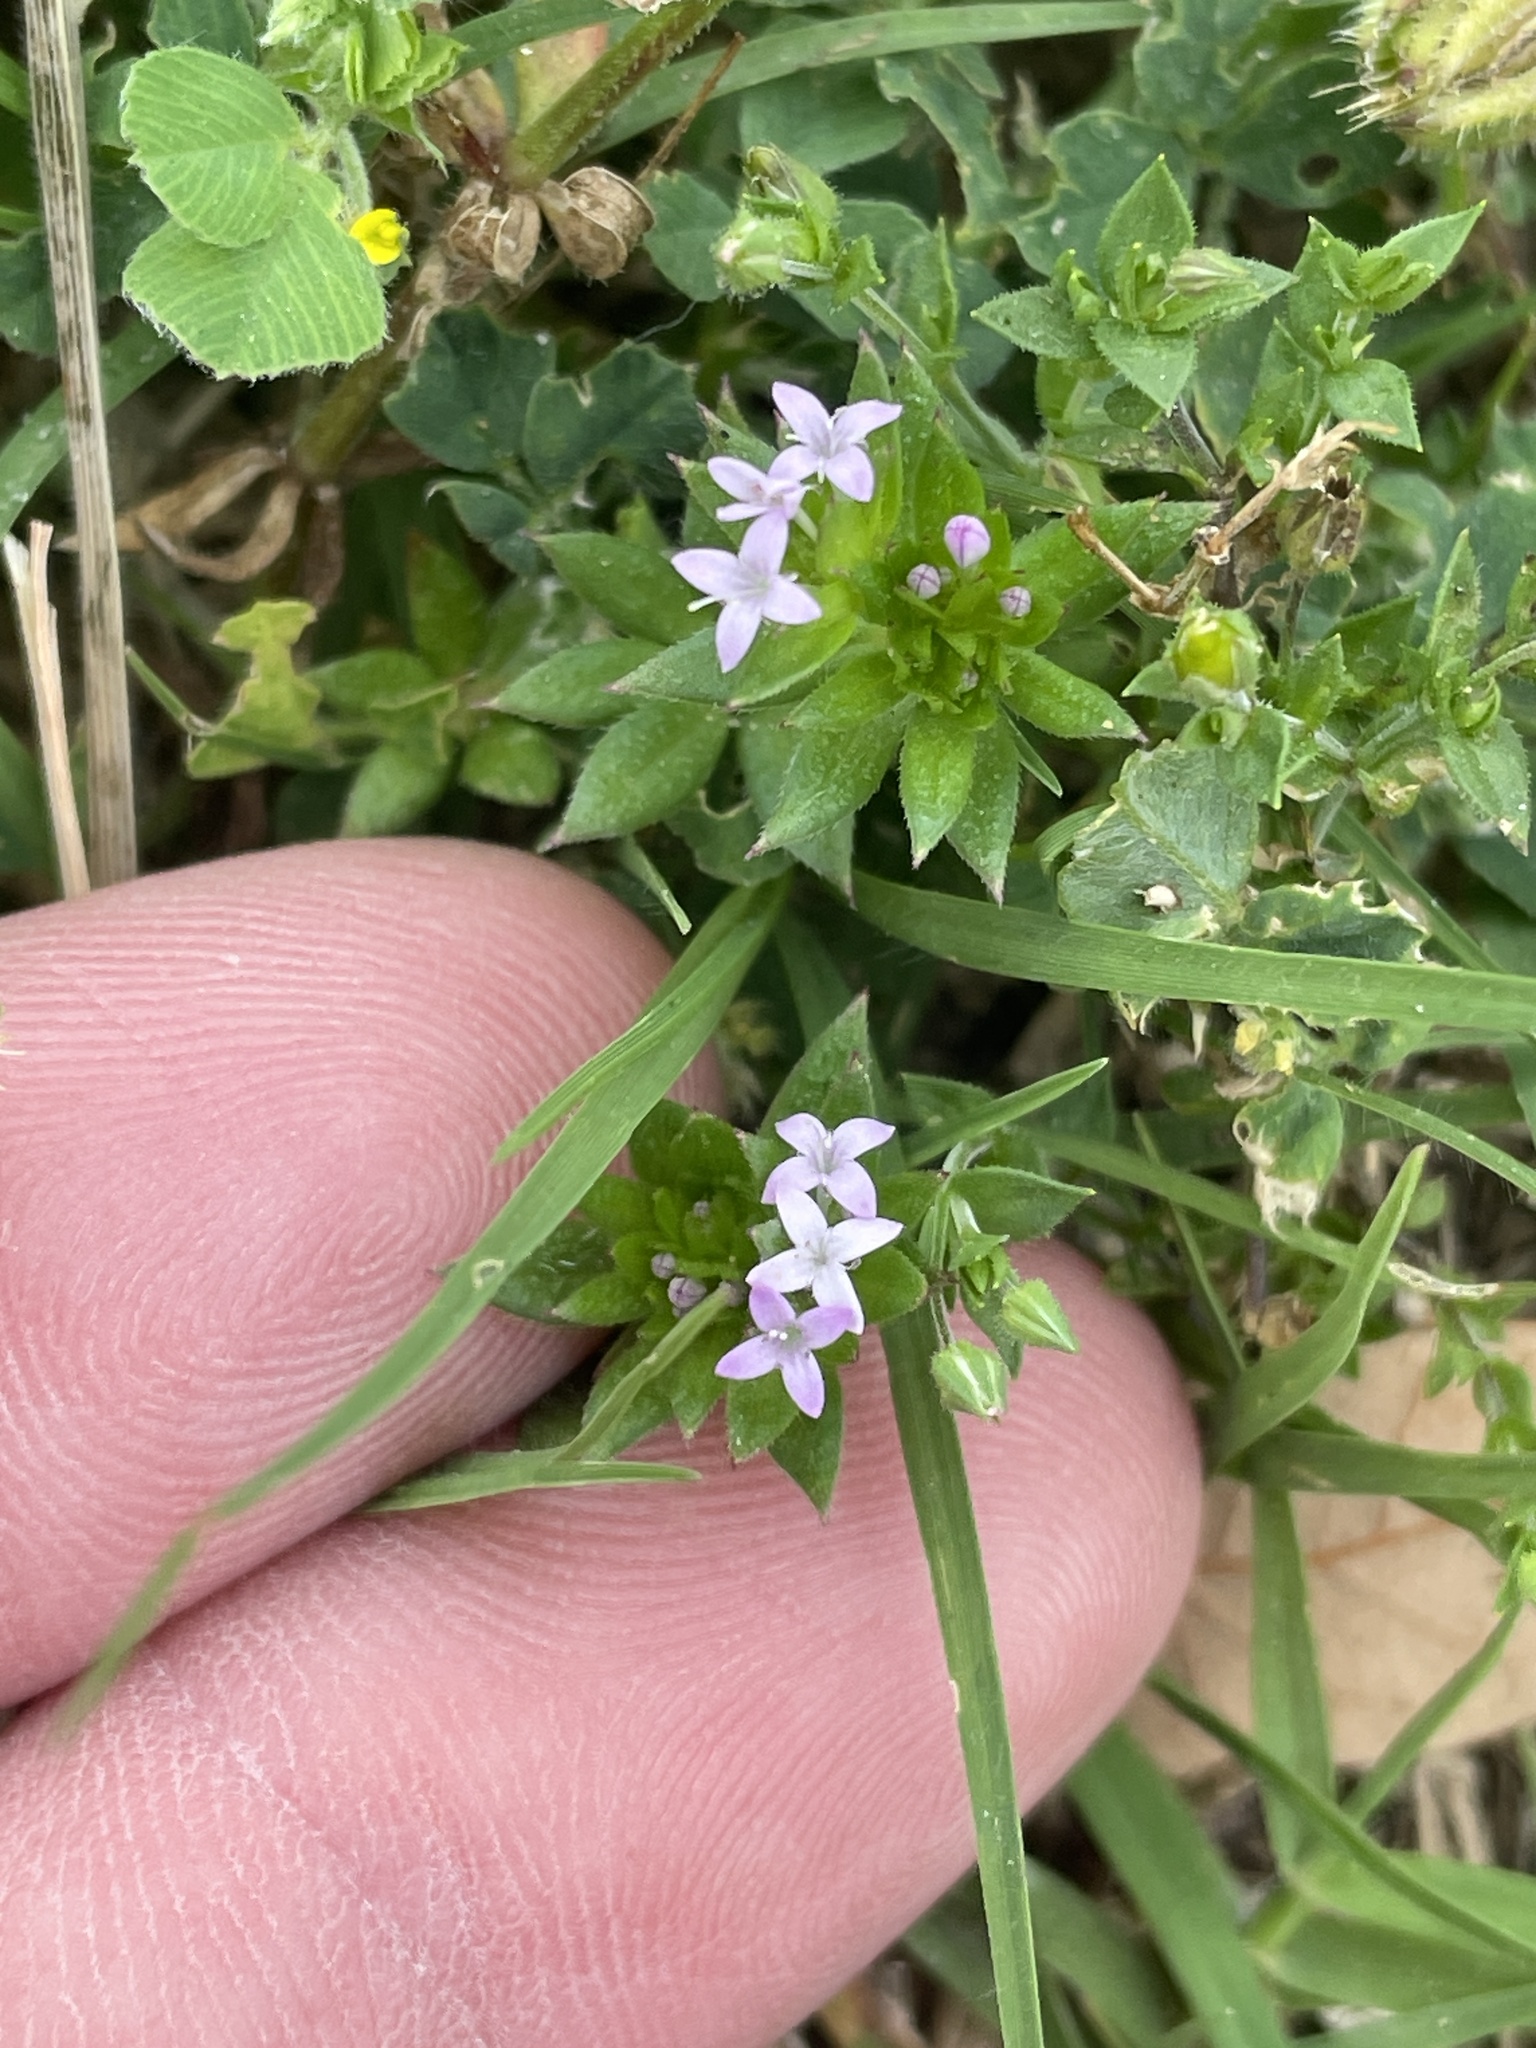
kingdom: Plantae
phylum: Tracheophyta
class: Magnoliopsida
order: Gentianales
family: Rubiaceae
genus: Sherardia
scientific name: Sherardia arvensis
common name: Field madder
